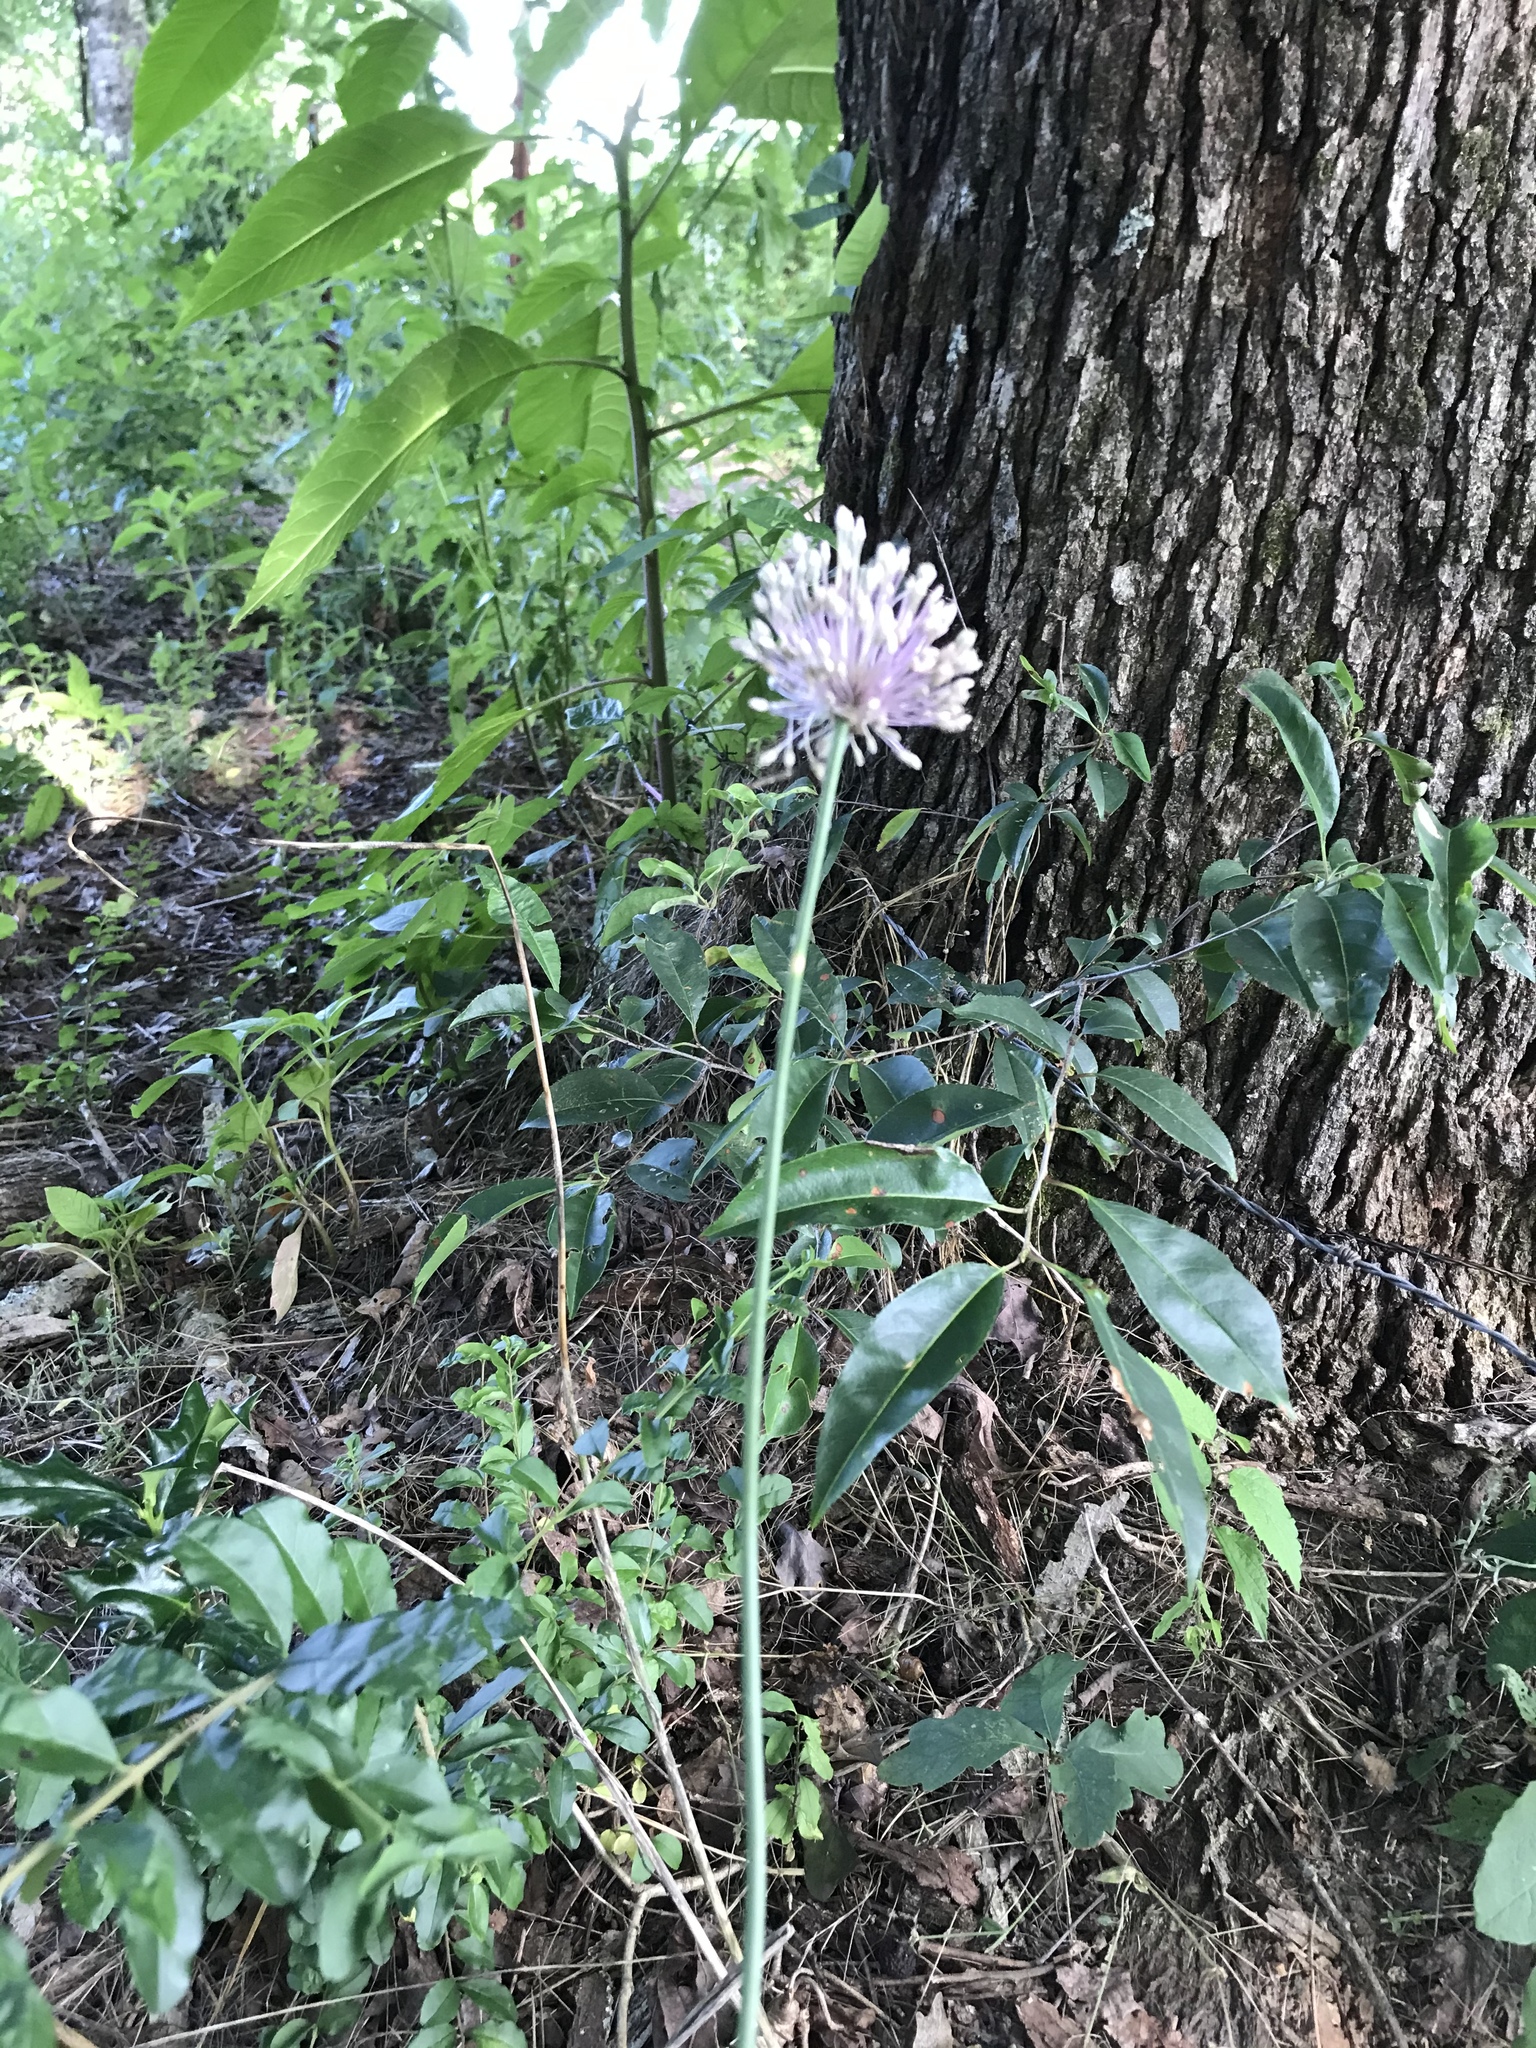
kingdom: Plantae
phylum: Tracheophyta
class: Liliopsida
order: Asparagales
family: Amaryllidaceae
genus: Allium
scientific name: Allium vineale
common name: Crow garlic
